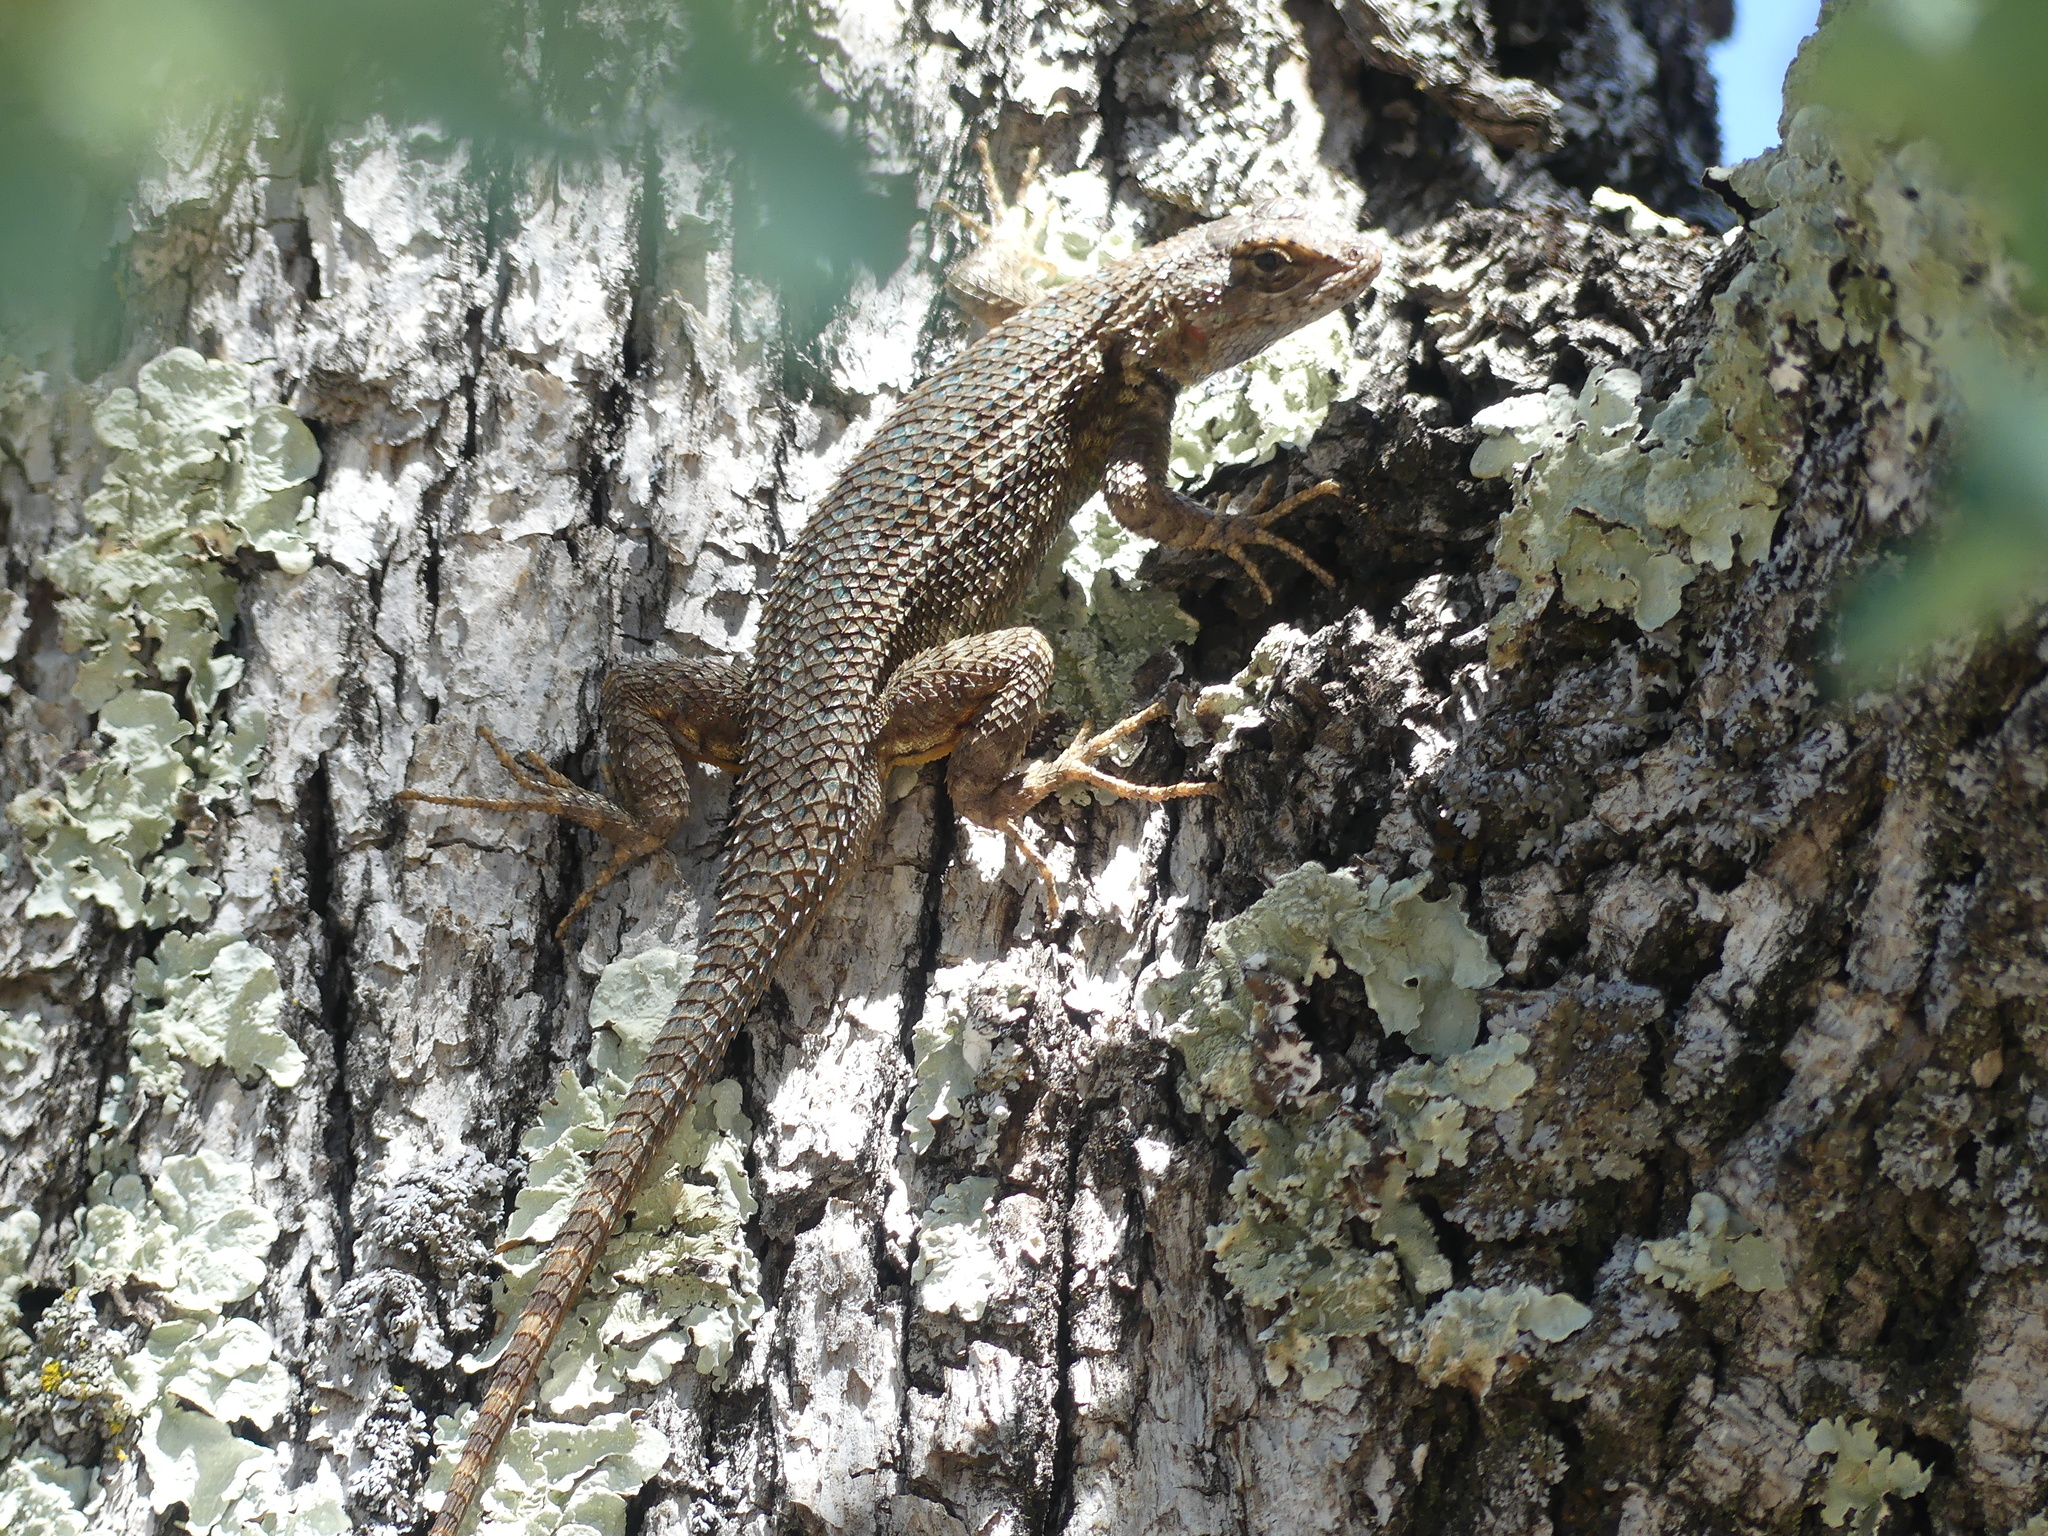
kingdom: Animalia
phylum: Chordata
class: Squamata
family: Phrynosomatidae
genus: Sceloporus
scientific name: Sceloporus occidentalis
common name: Western fence lizard
